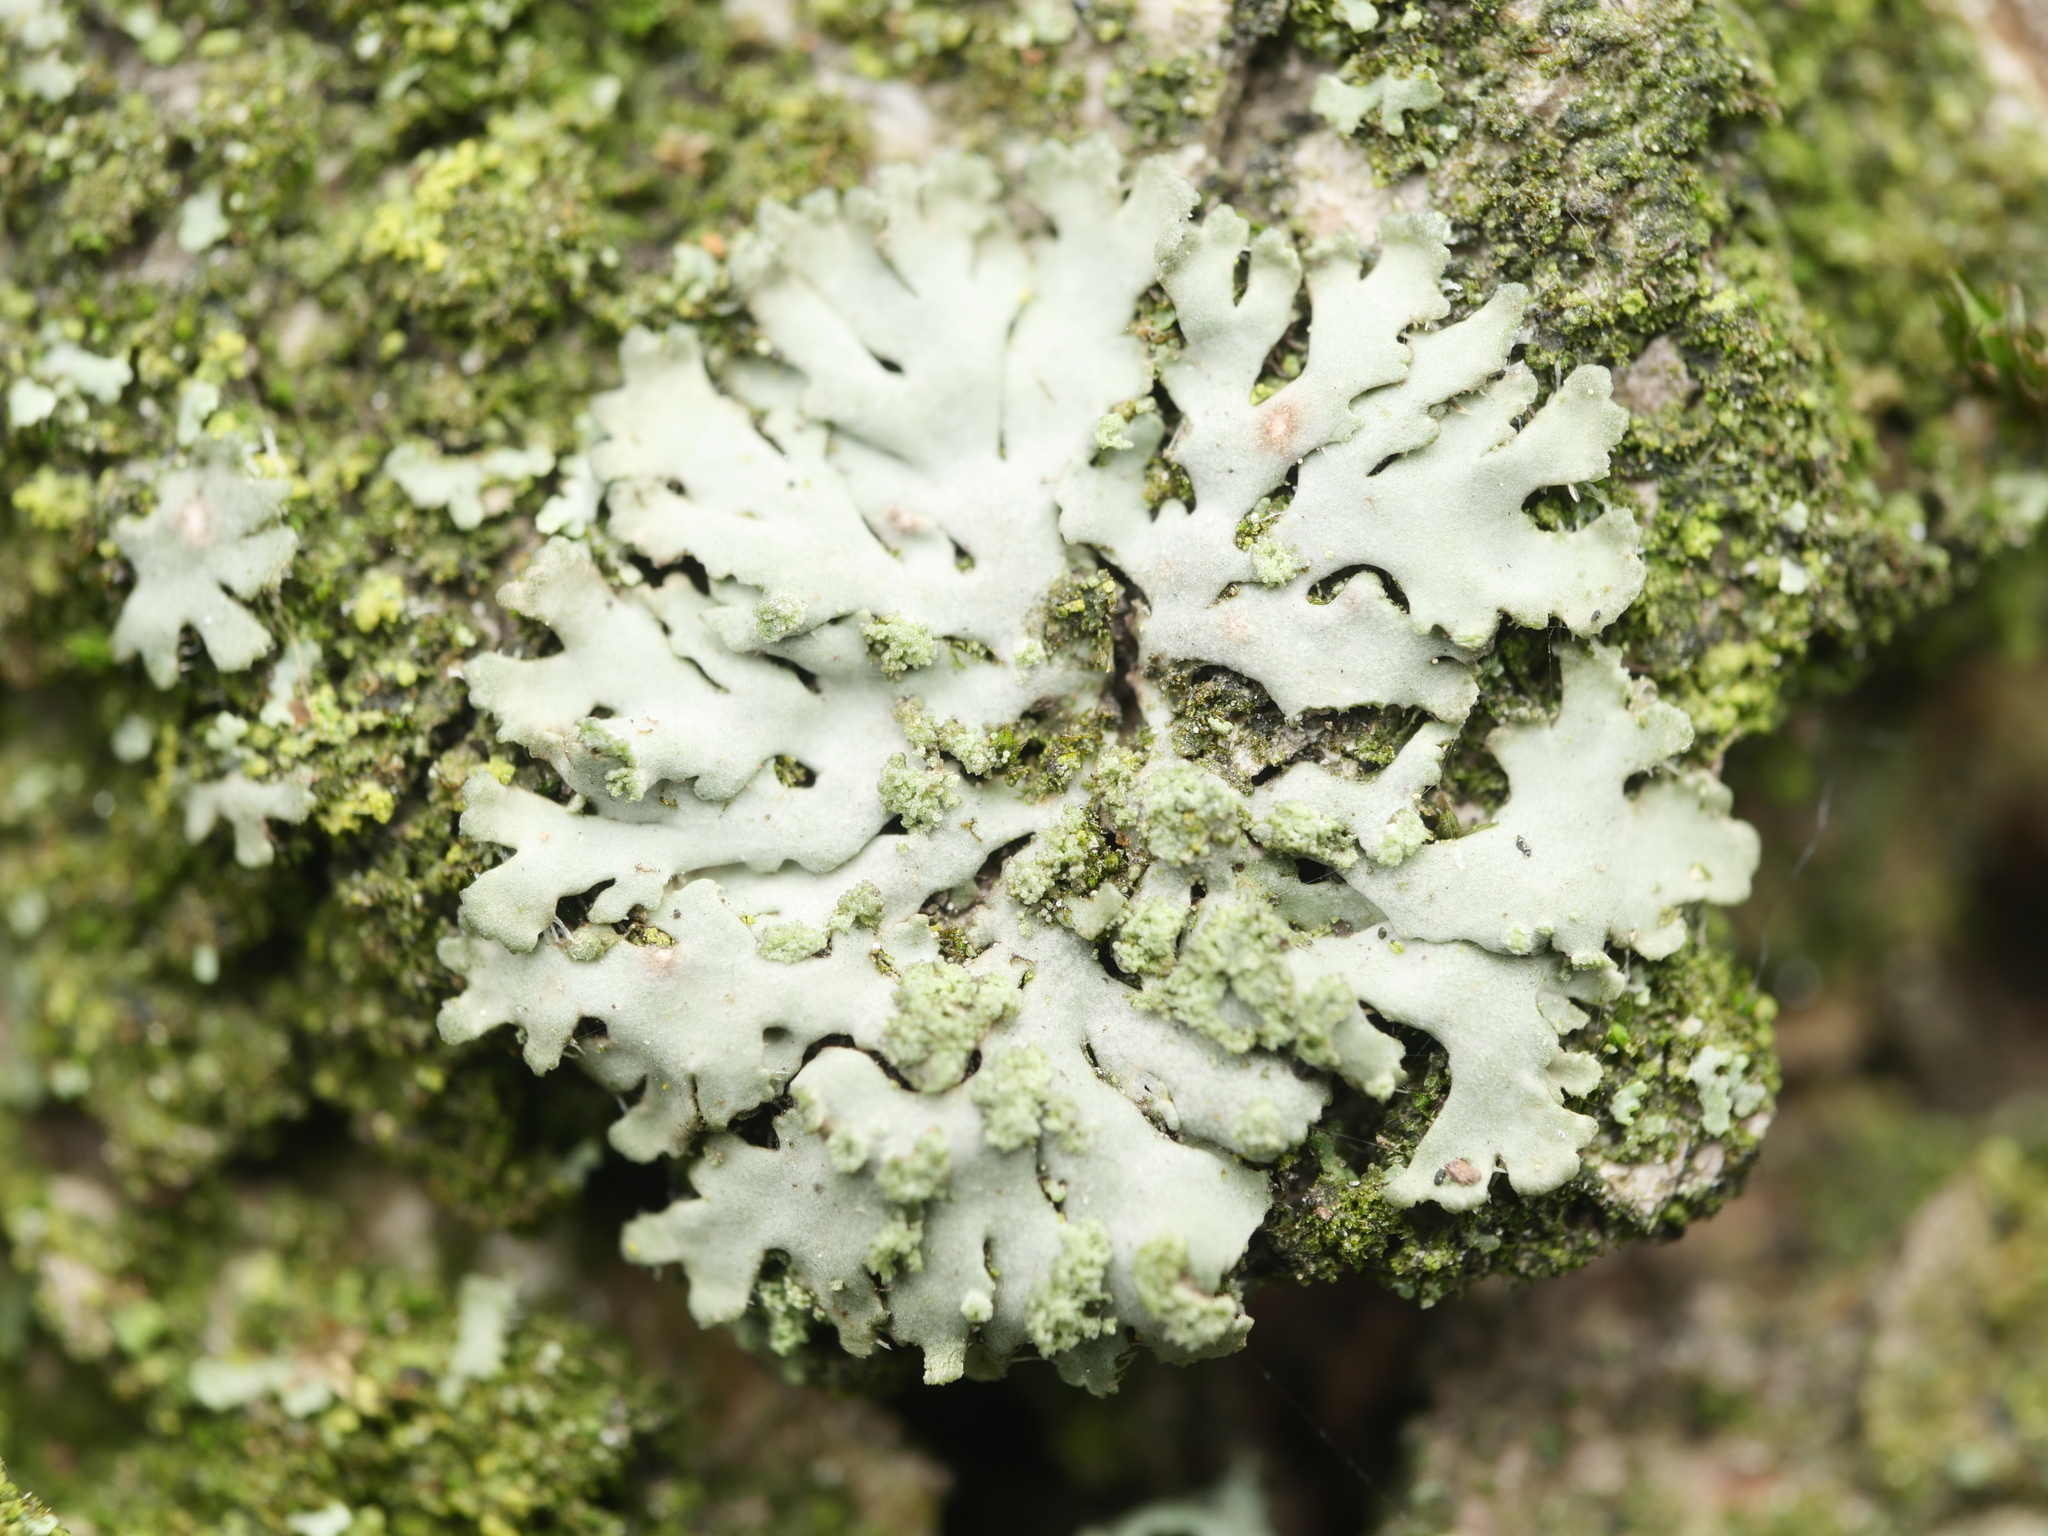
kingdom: Fungi
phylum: Ascomycota
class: Lecanoromycetes
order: Caliciales
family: Physciaceae
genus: Phaeophyscia
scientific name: Phaeophyscia orbicularis
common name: Mealy shadow lichen
